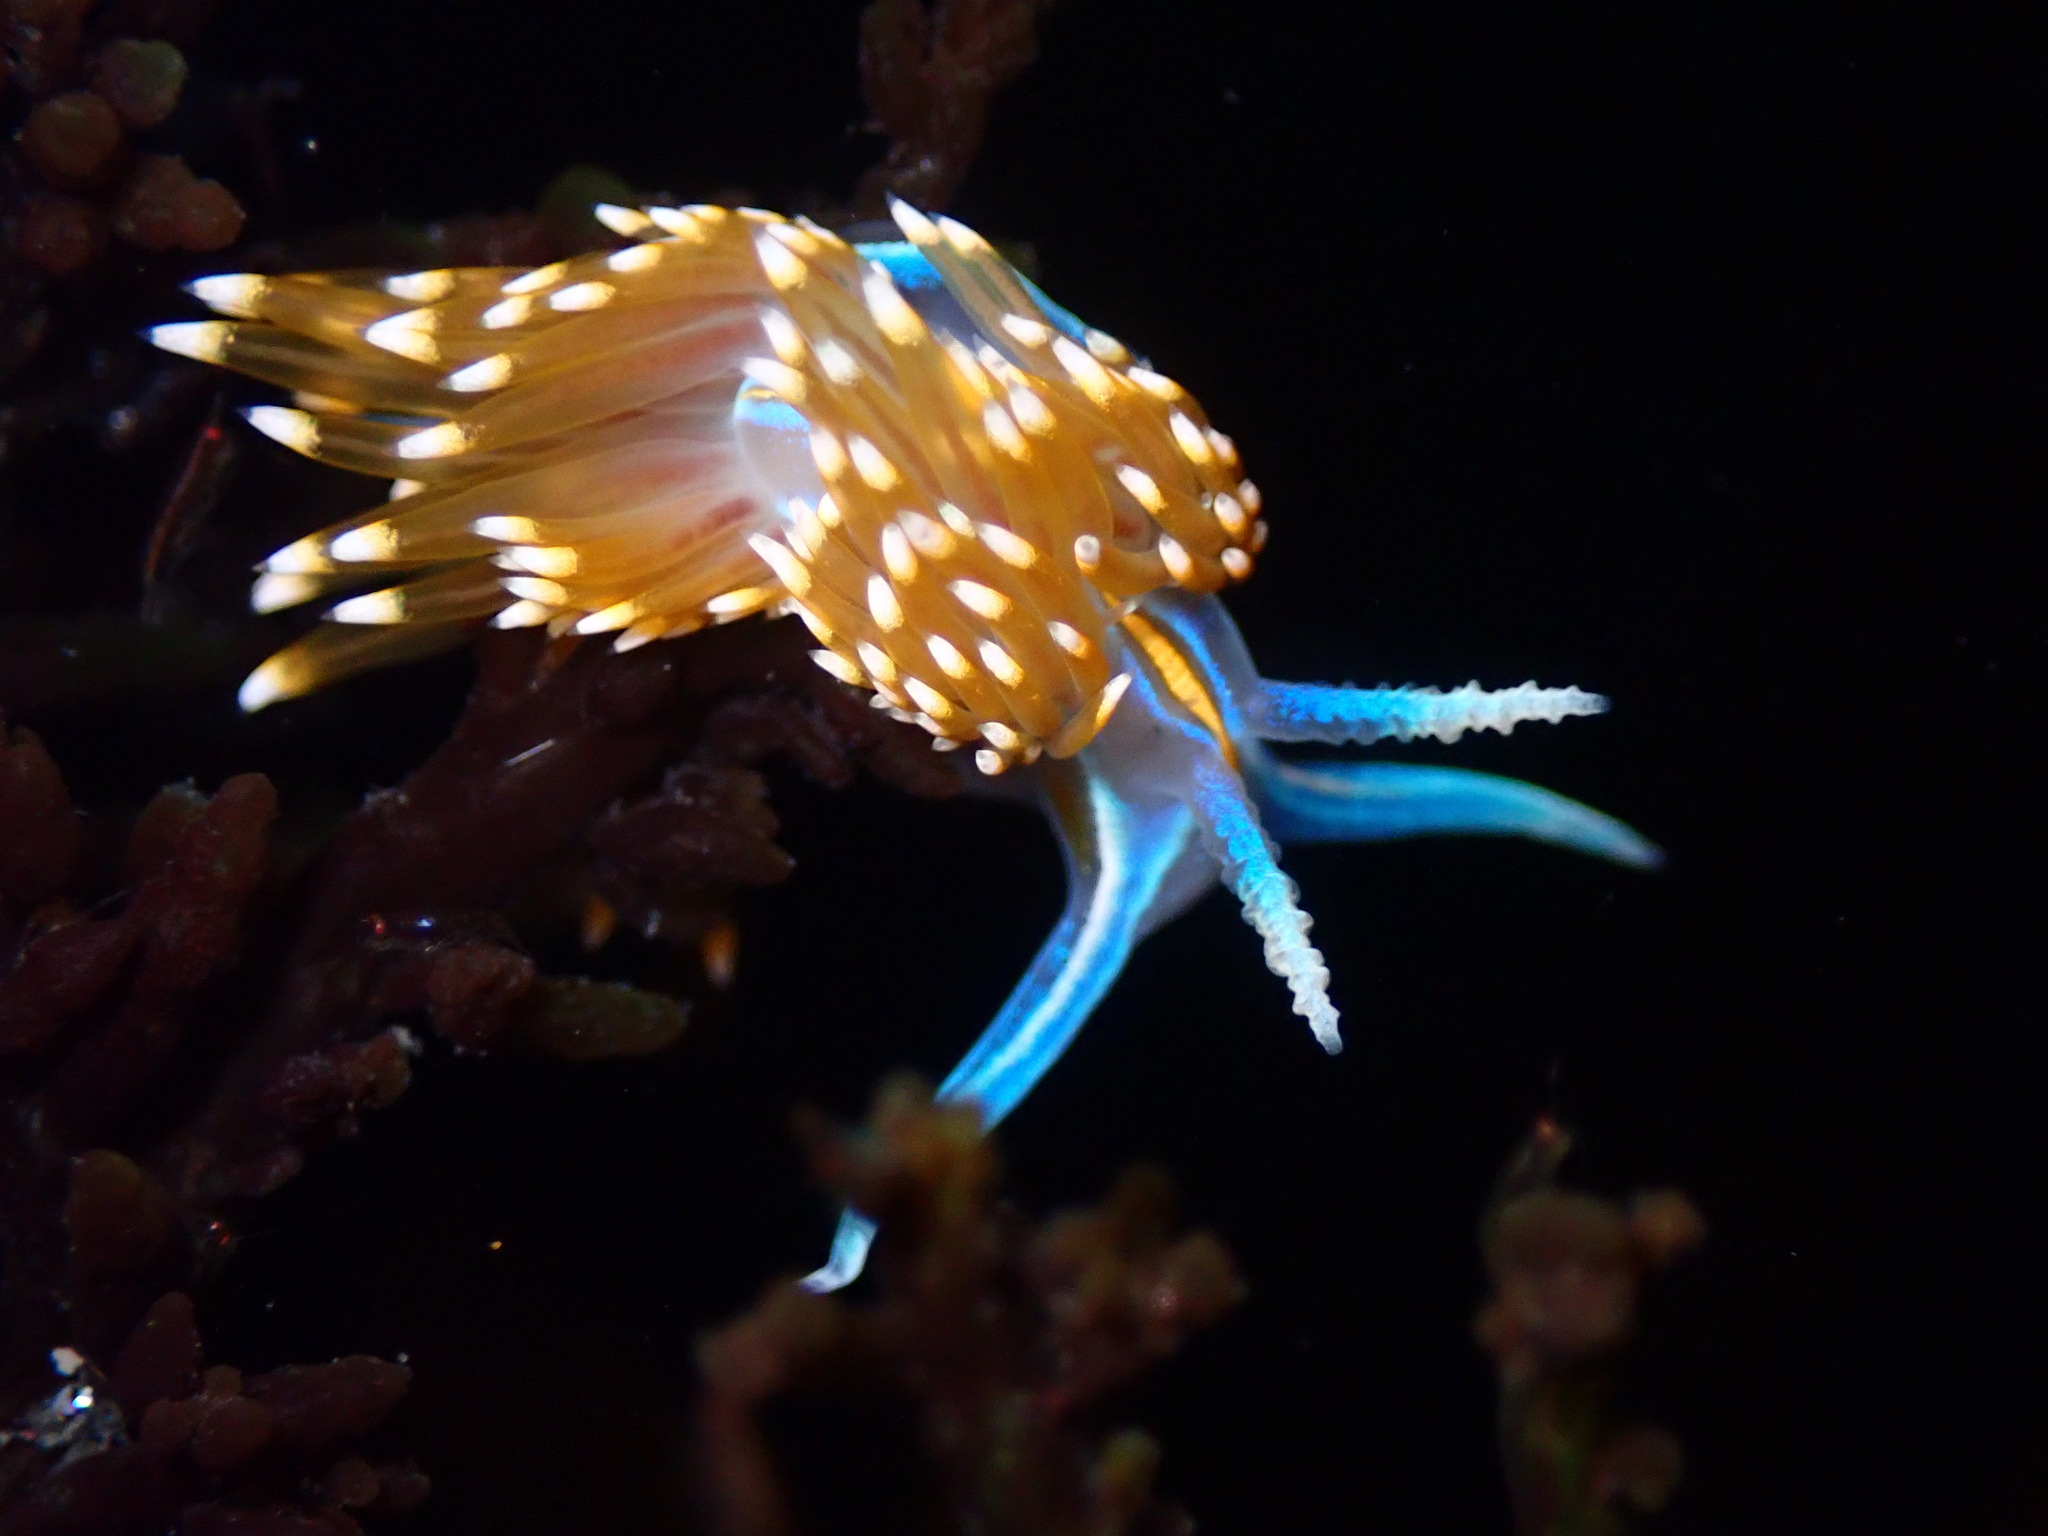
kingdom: Animalia
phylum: Mollusca
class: Gastropoda
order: Nudibranchia
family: Myrrhinidae
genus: Hermissenda
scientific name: Hermissenda opalescens
